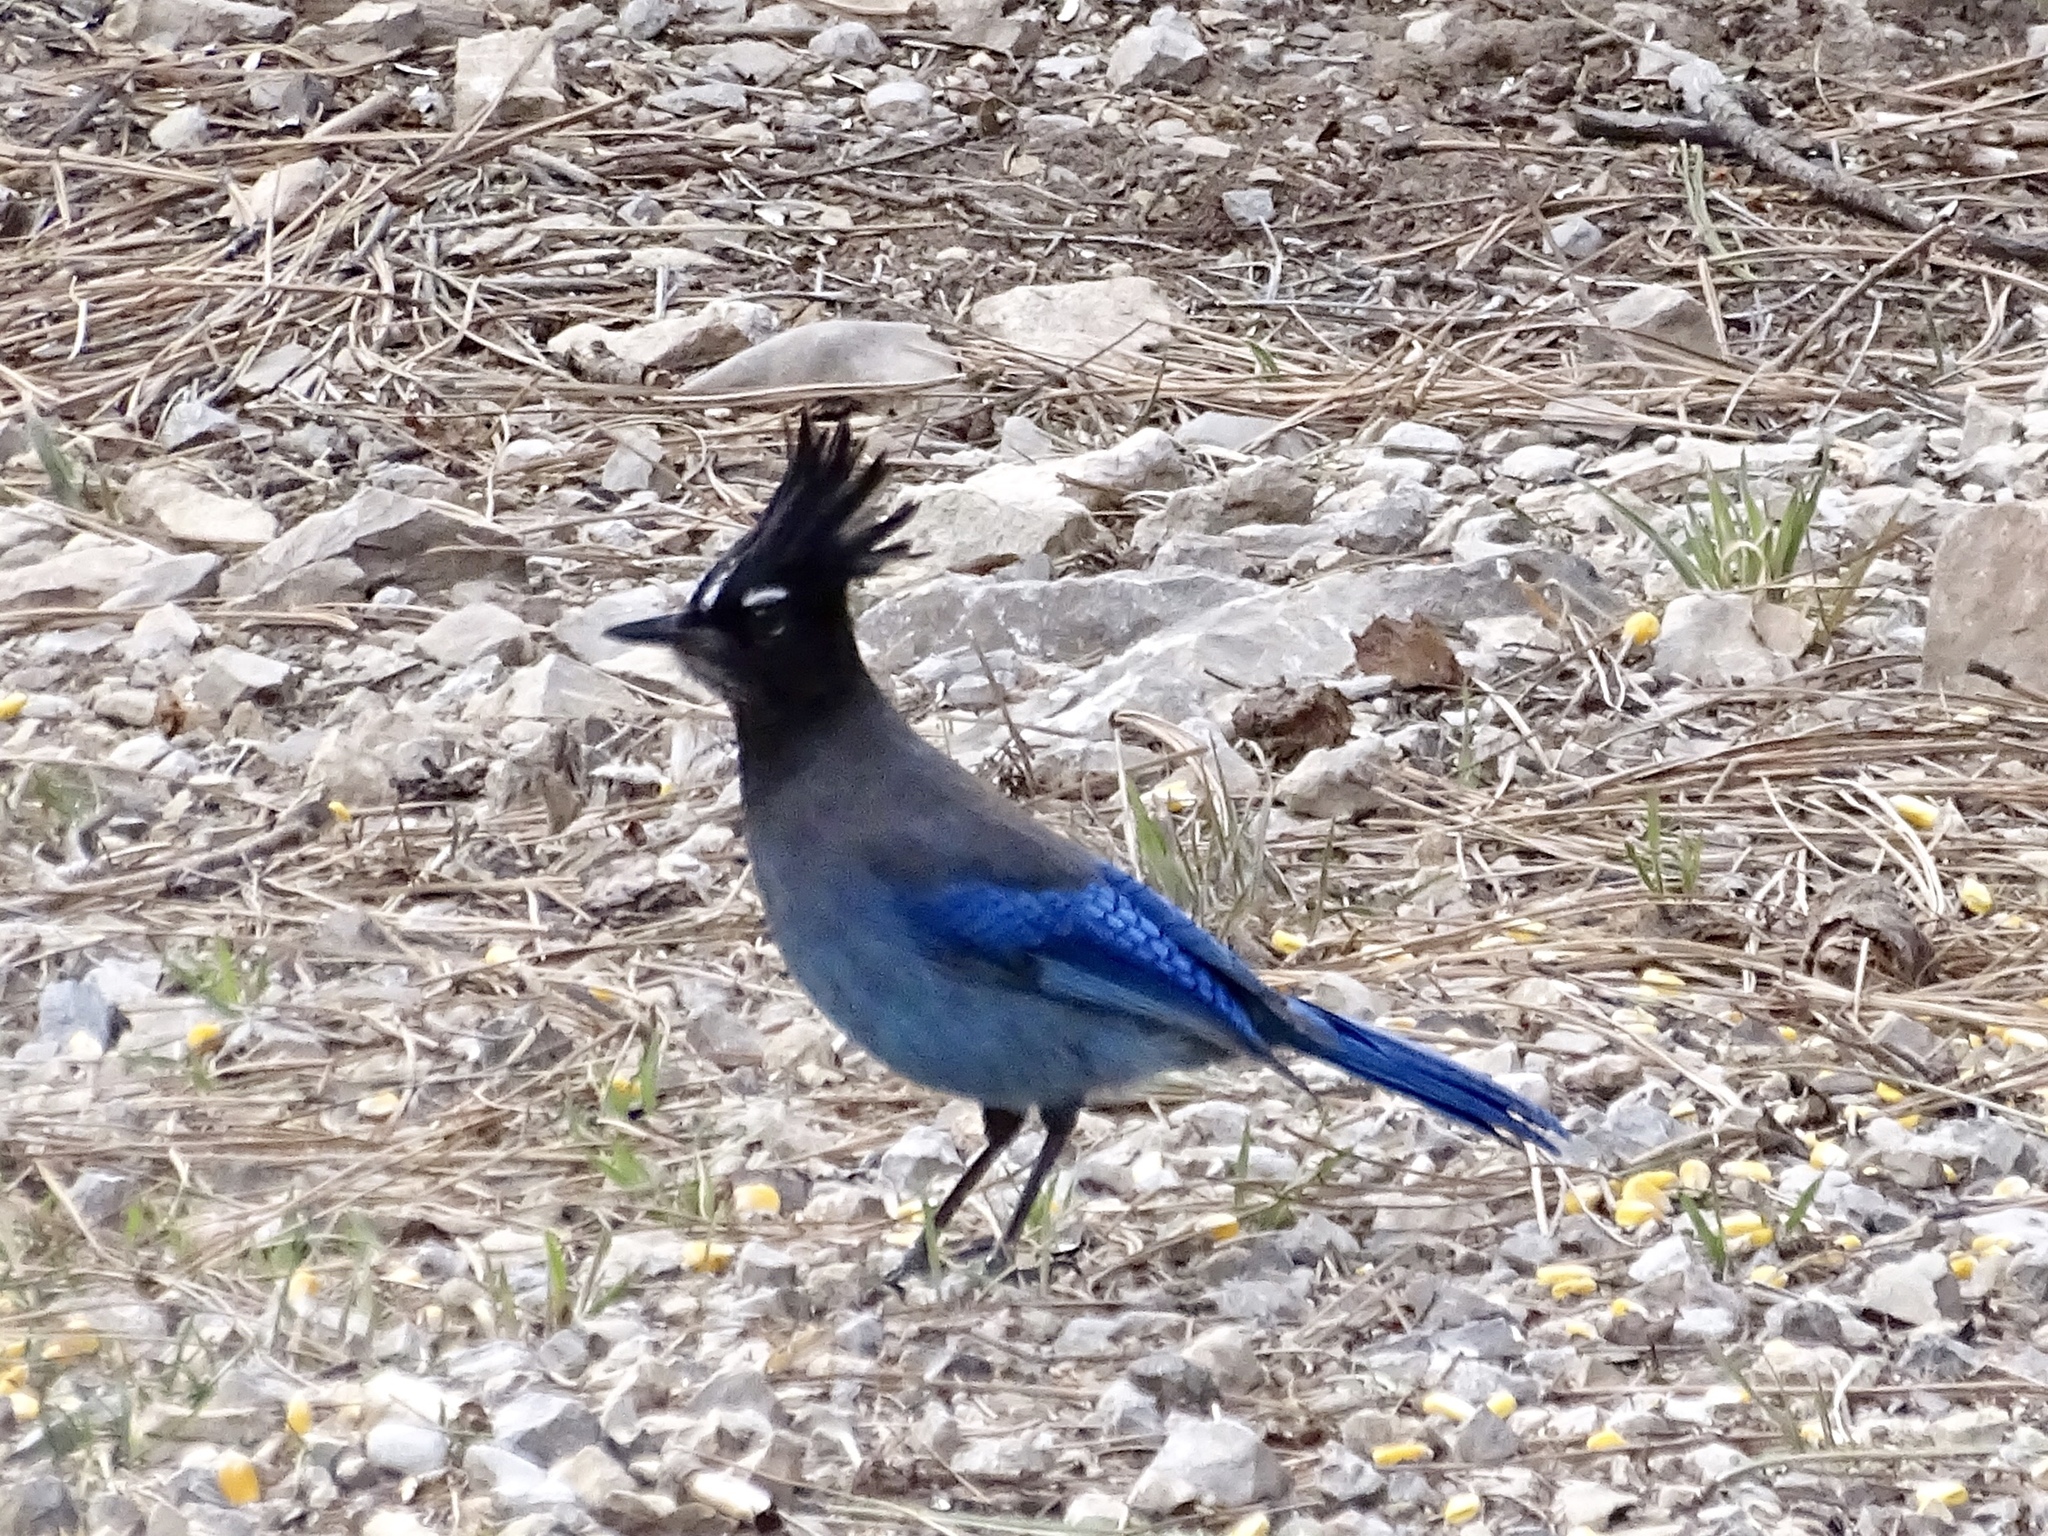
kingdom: Animalia
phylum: Chordata
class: Aves
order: Passeriformes
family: Corvidae
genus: Cyanocitta
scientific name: Cyanocitta stelleri
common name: Steller's jay
